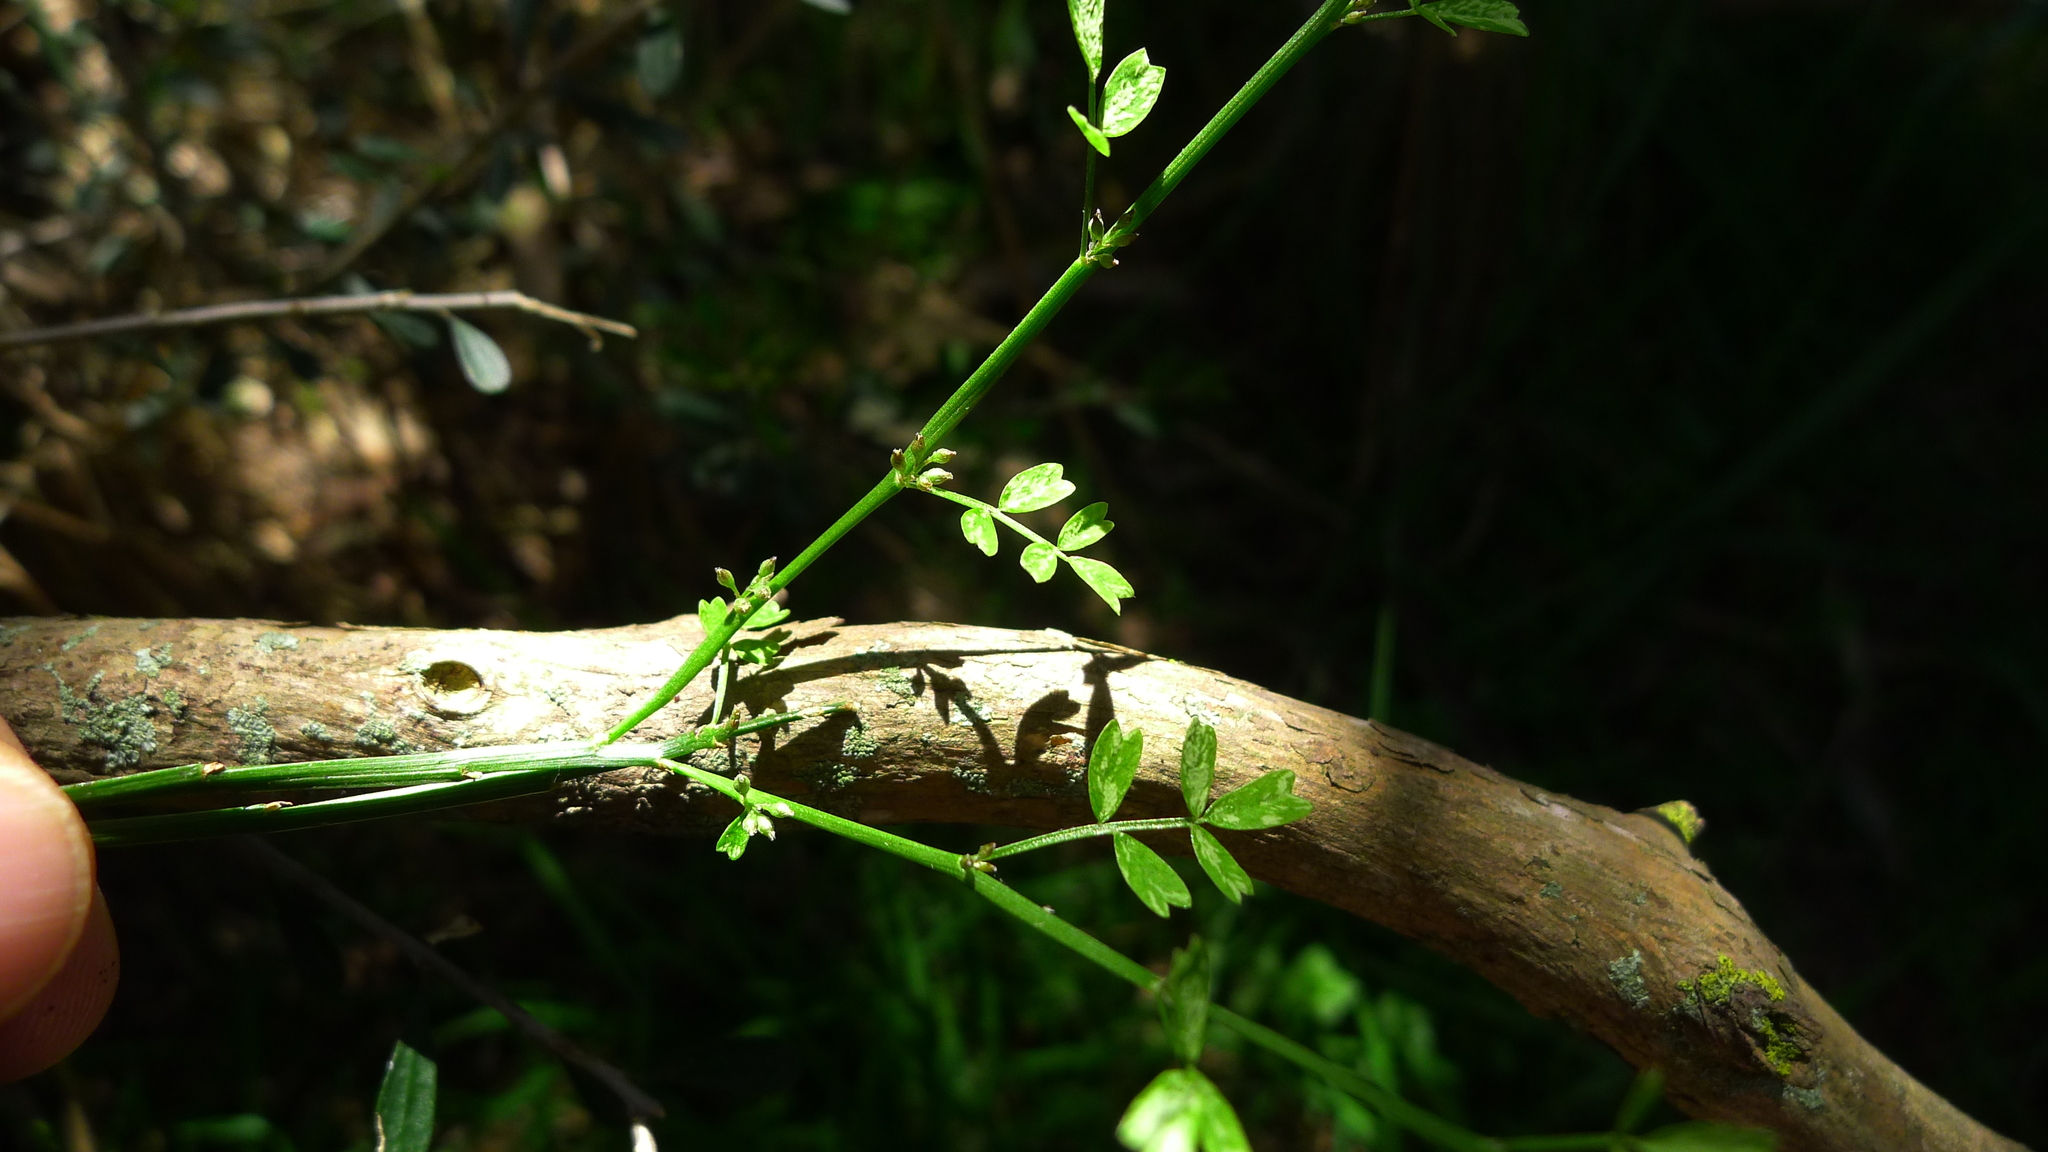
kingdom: Plantae
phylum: Tracheophyta
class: Magnoliopsida
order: Fabales
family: Fabaceae
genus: Carmichaelia
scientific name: Carmichaelia australis
